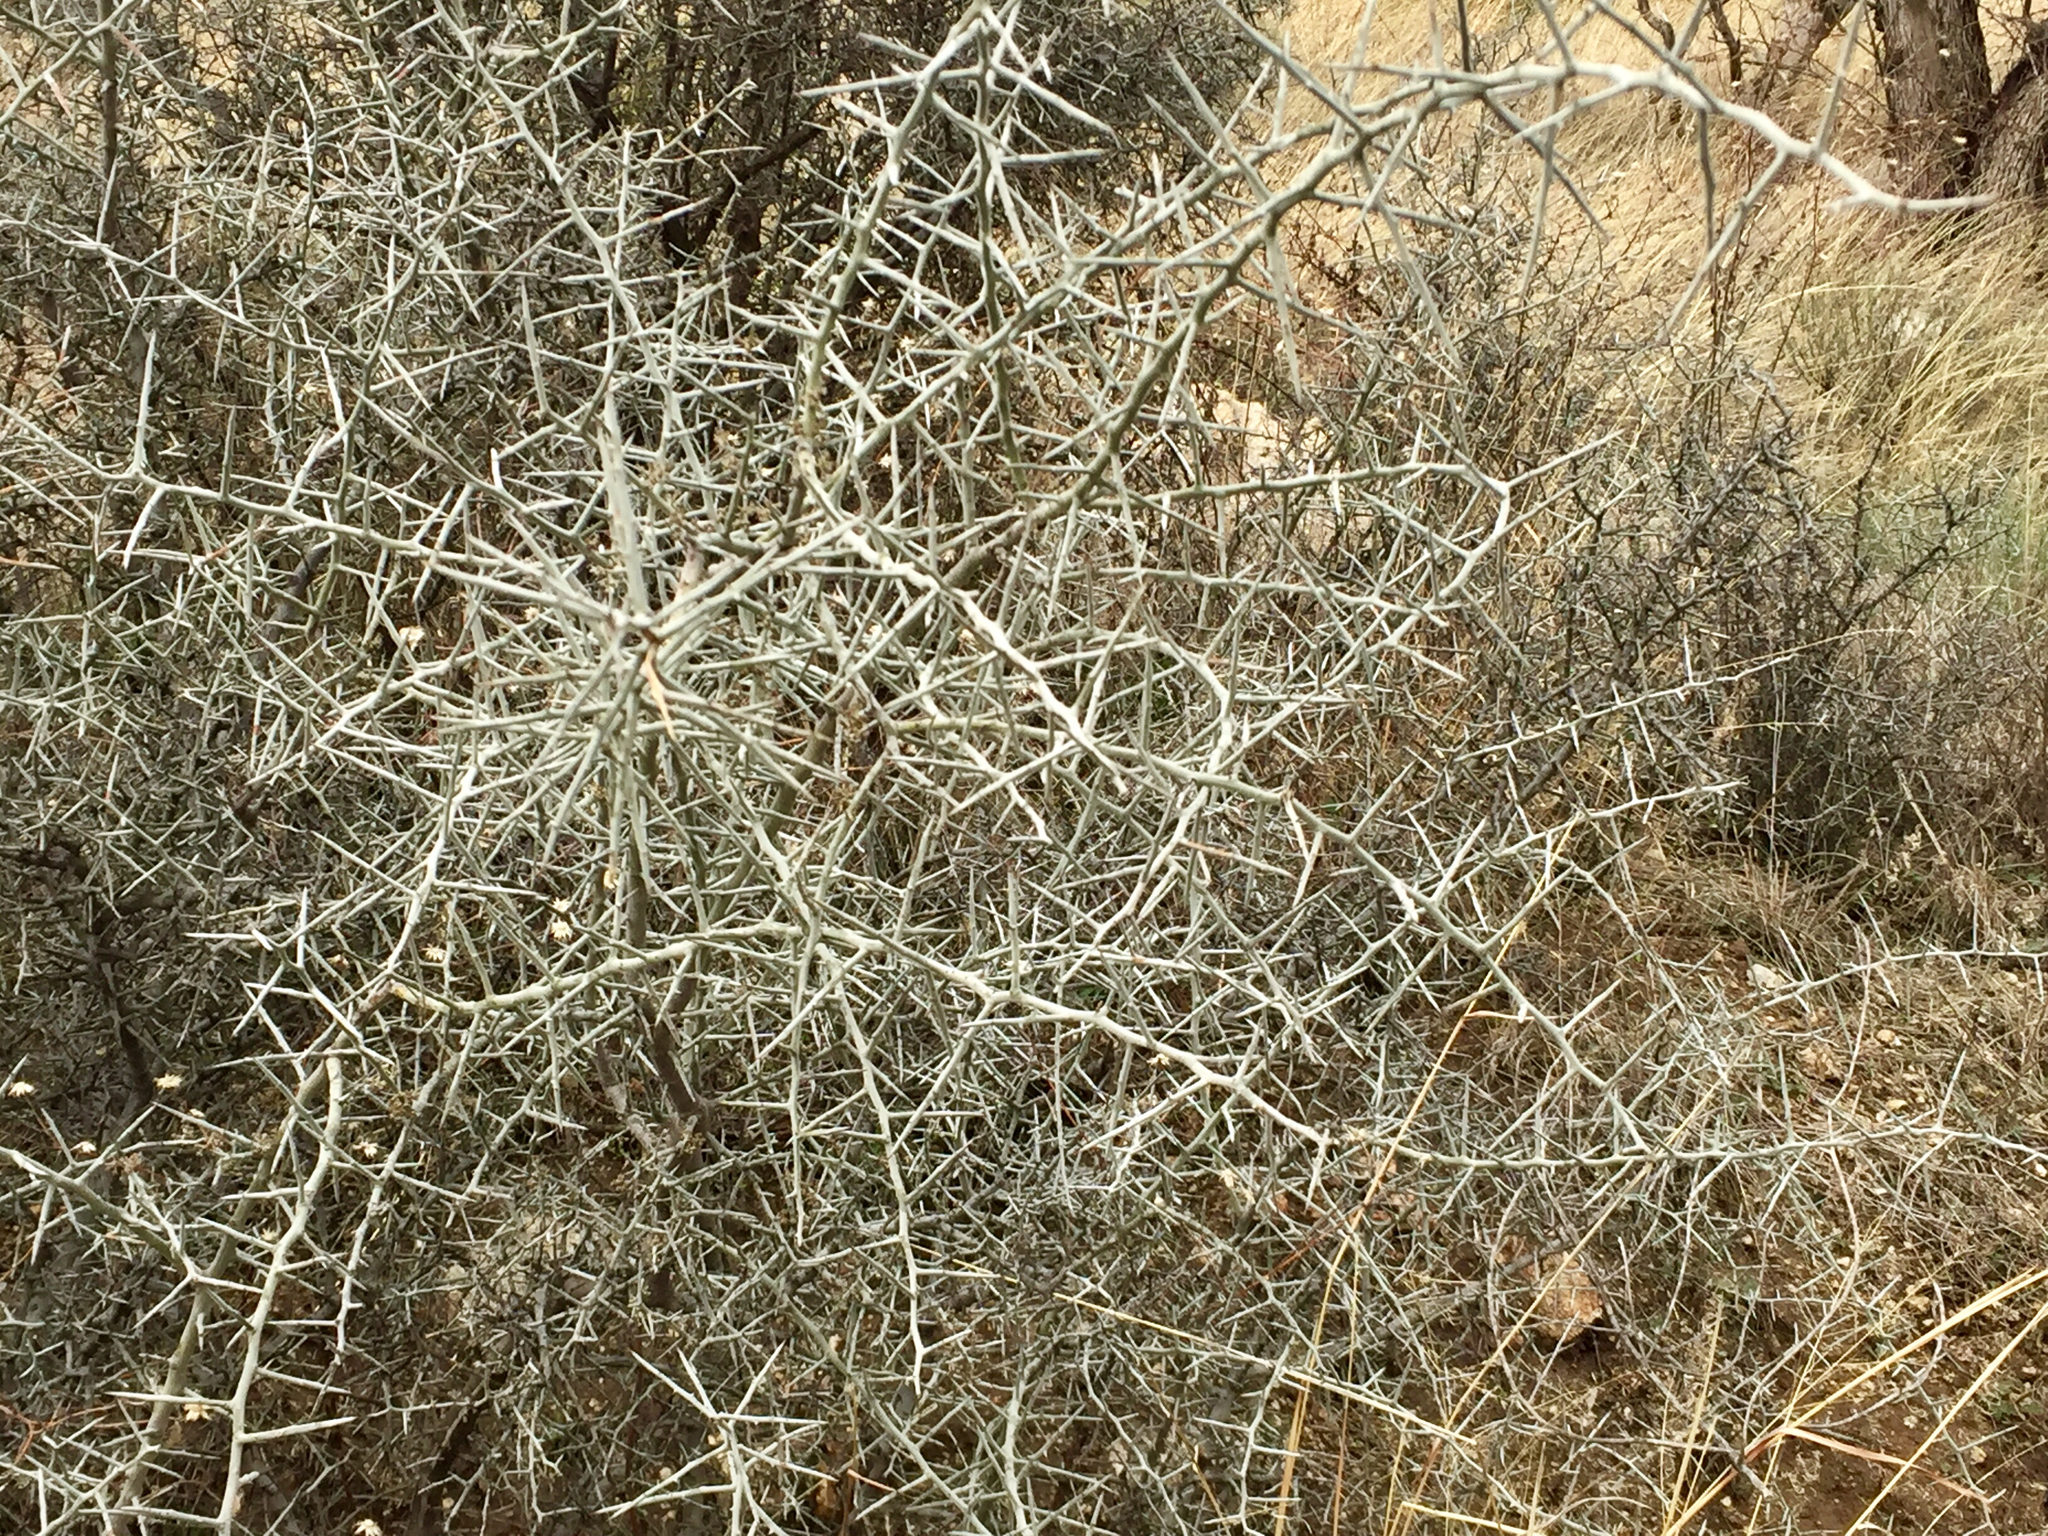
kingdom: Plantae
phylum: Tracheophyta
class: Magnoliopsida
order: Rosales
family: Rhamnaceae
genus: Sarcomphalus
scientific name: Sarcomphalus obtusifolius
